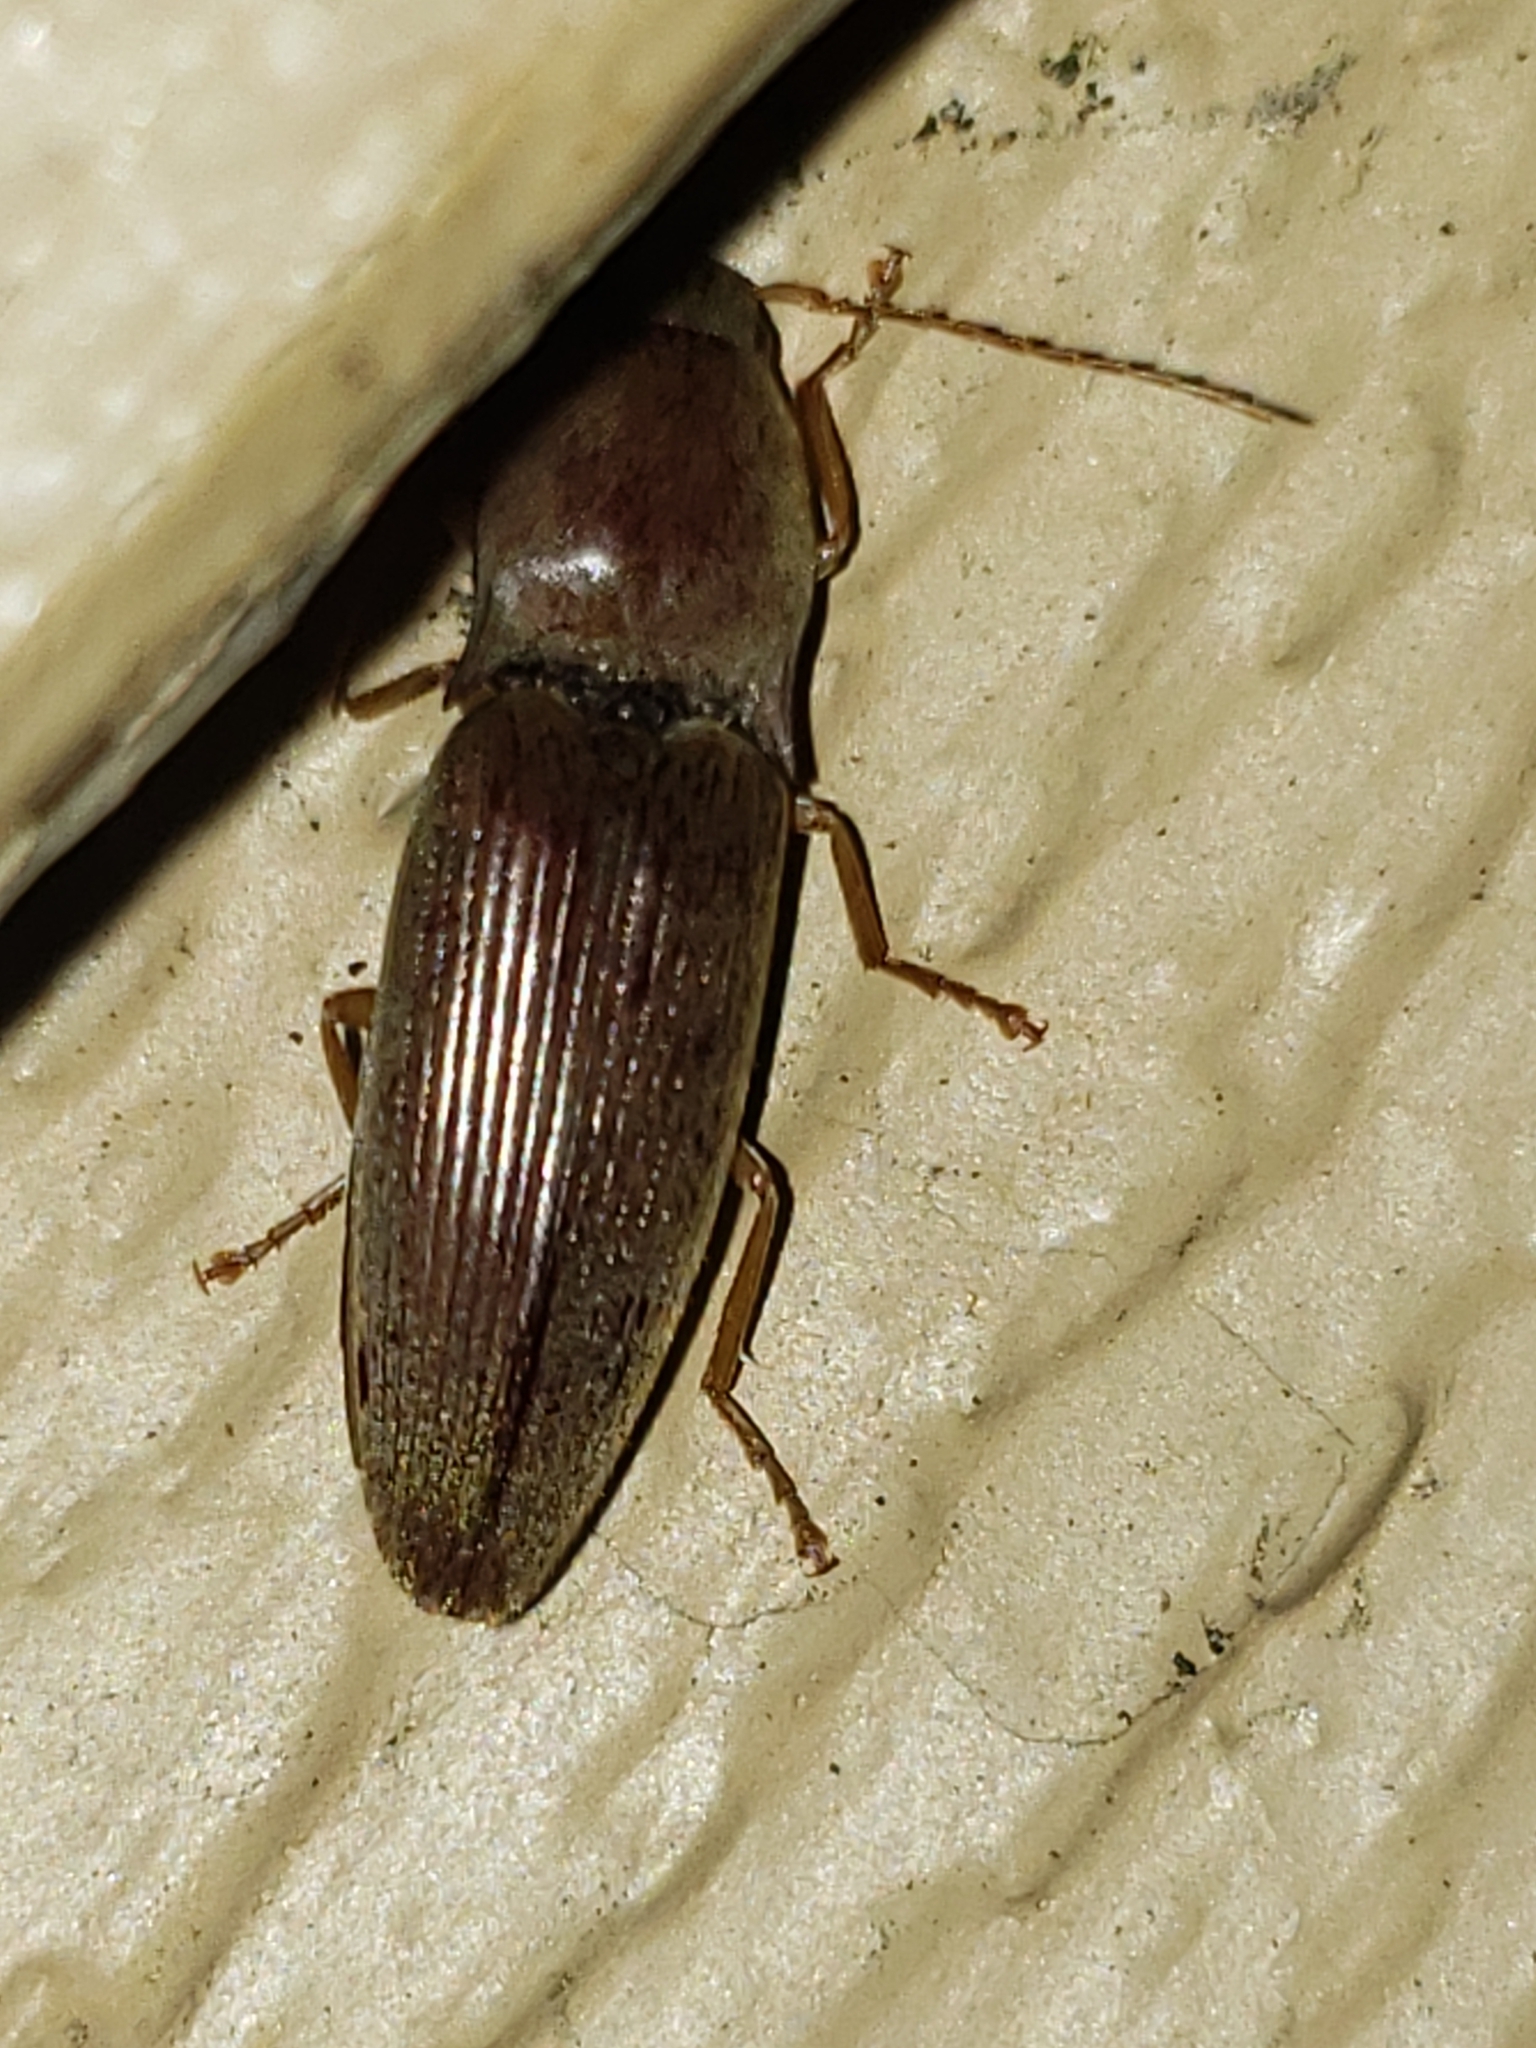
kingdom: Animalia
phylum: Arthropoda
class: Insecta
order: Coleoptera
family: Elateridae
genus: Monocrepidius
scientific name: Monocrepidius lividus
